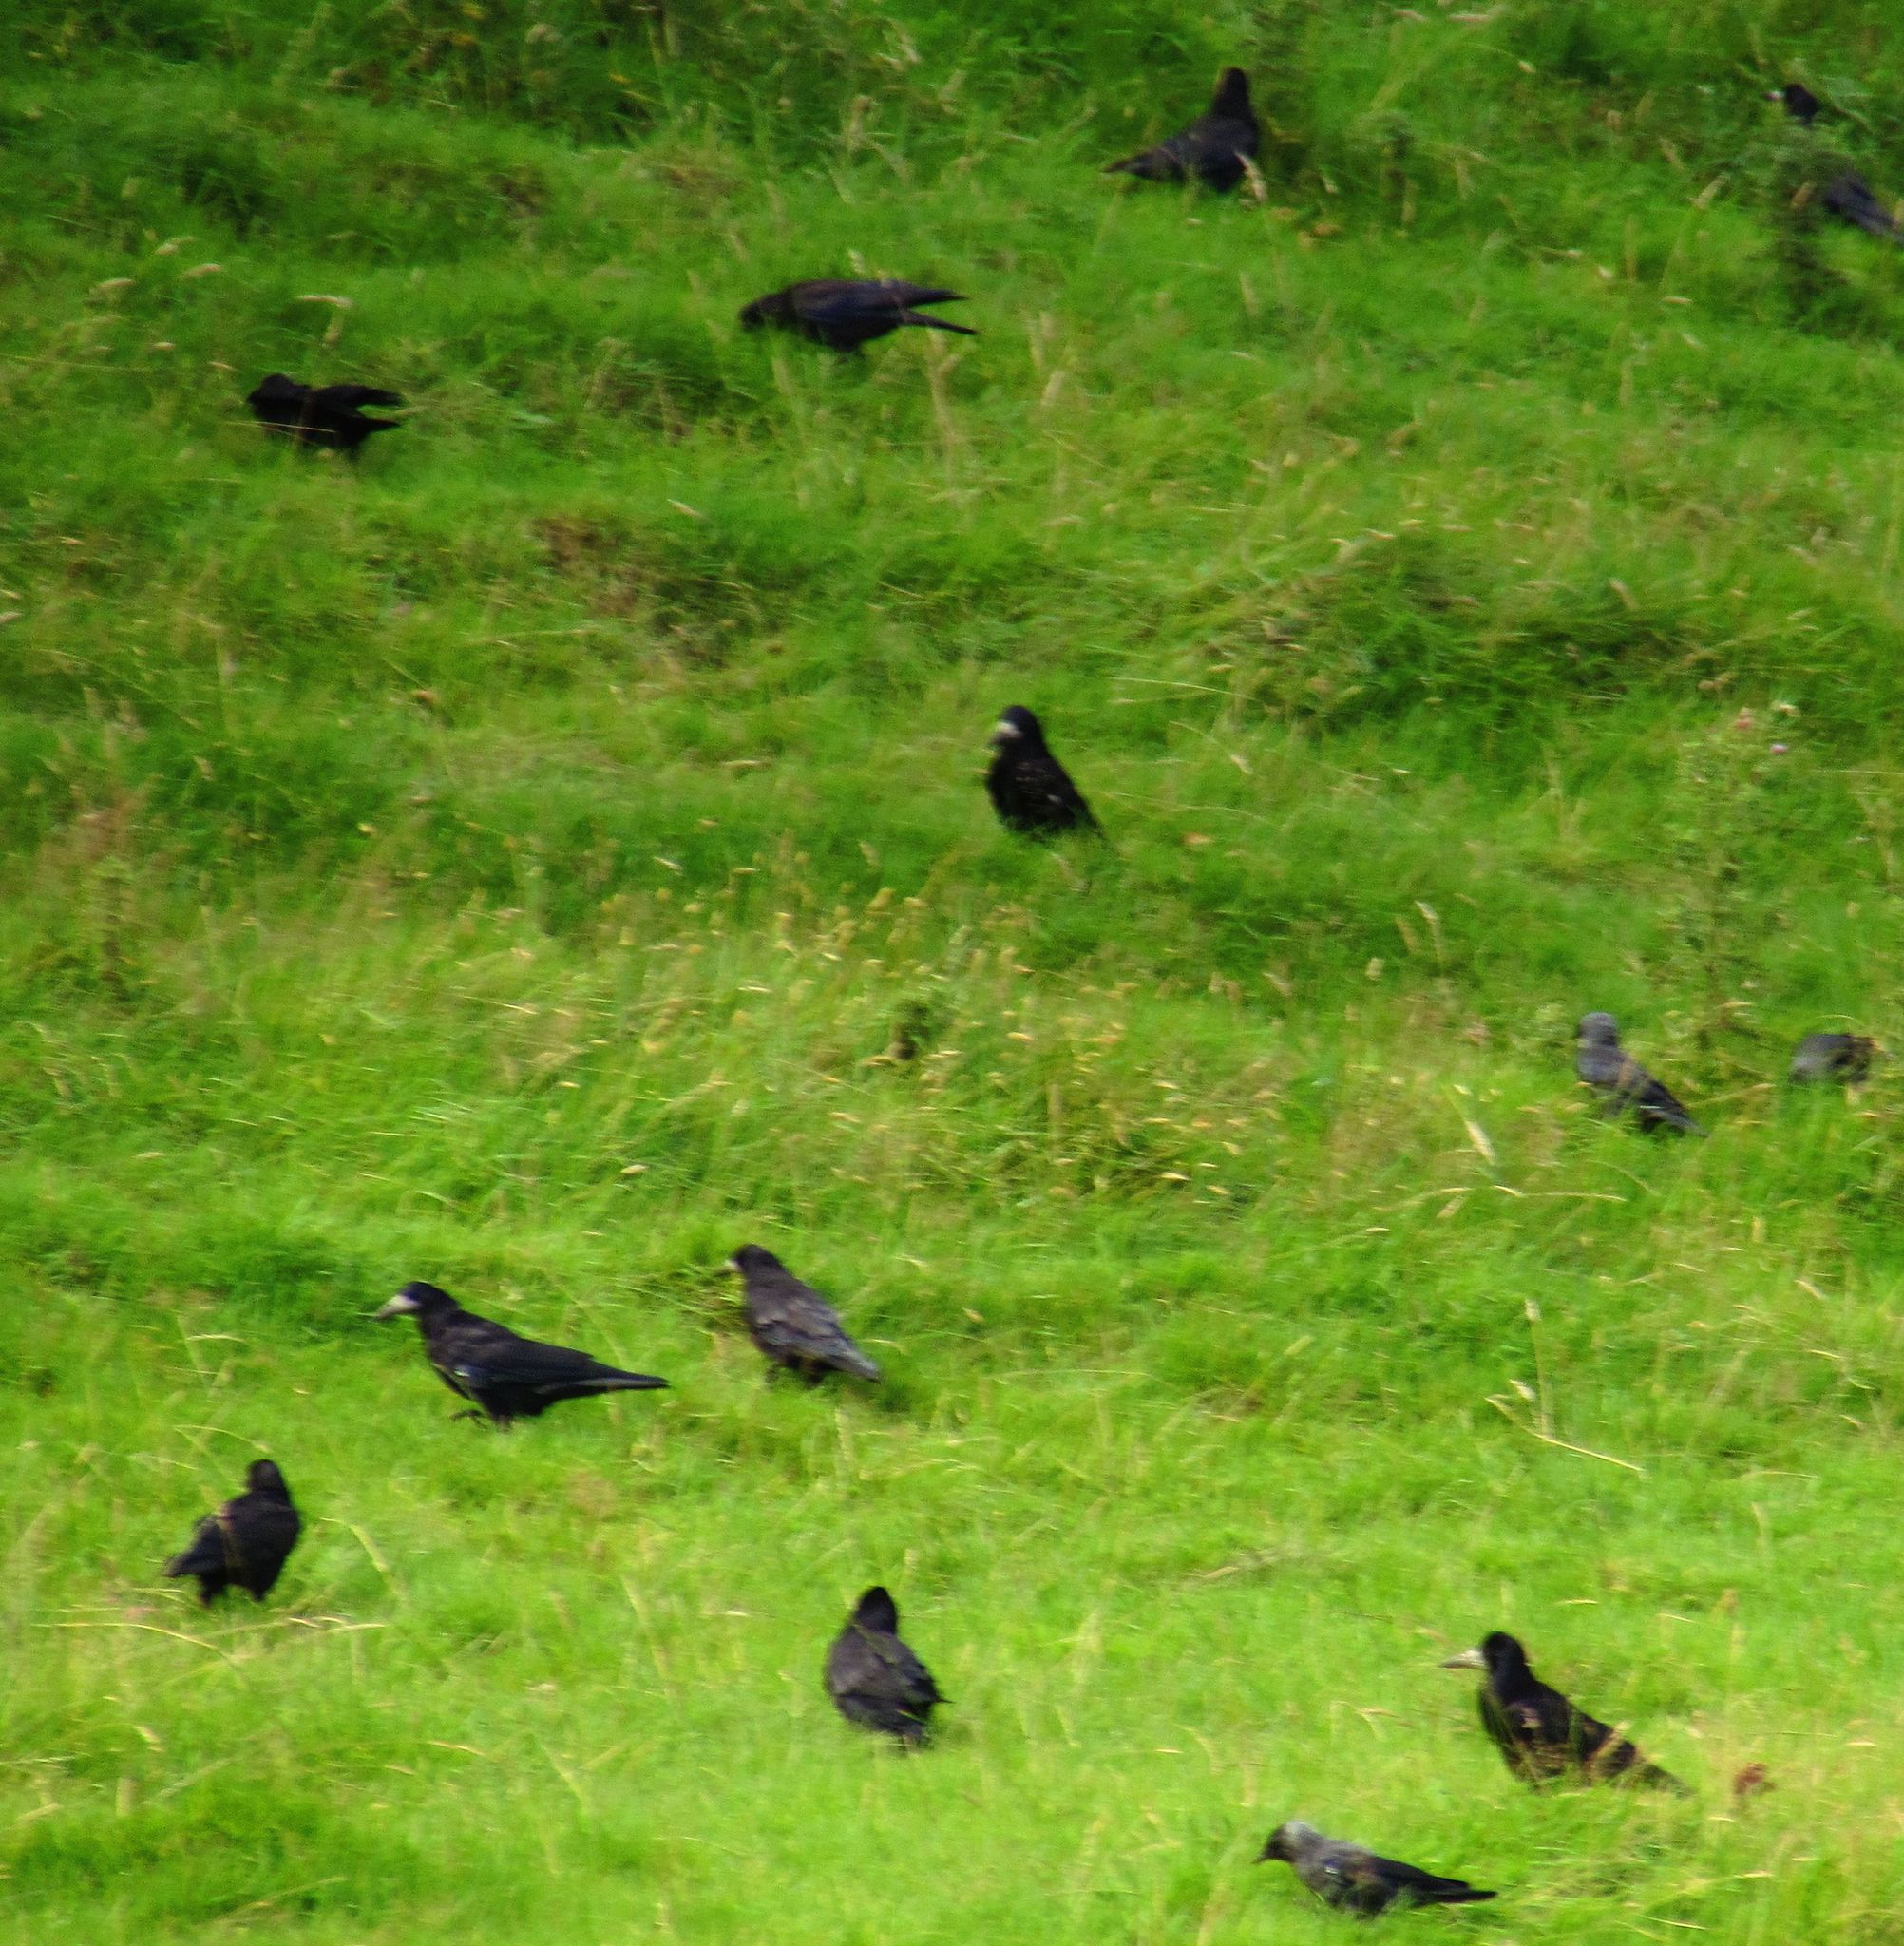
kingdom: Animalia
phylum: Chordata
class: Aves
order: Passeriformes
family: Corvidae
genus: Corvus
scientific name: Corvus frugilegus
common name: Rook
